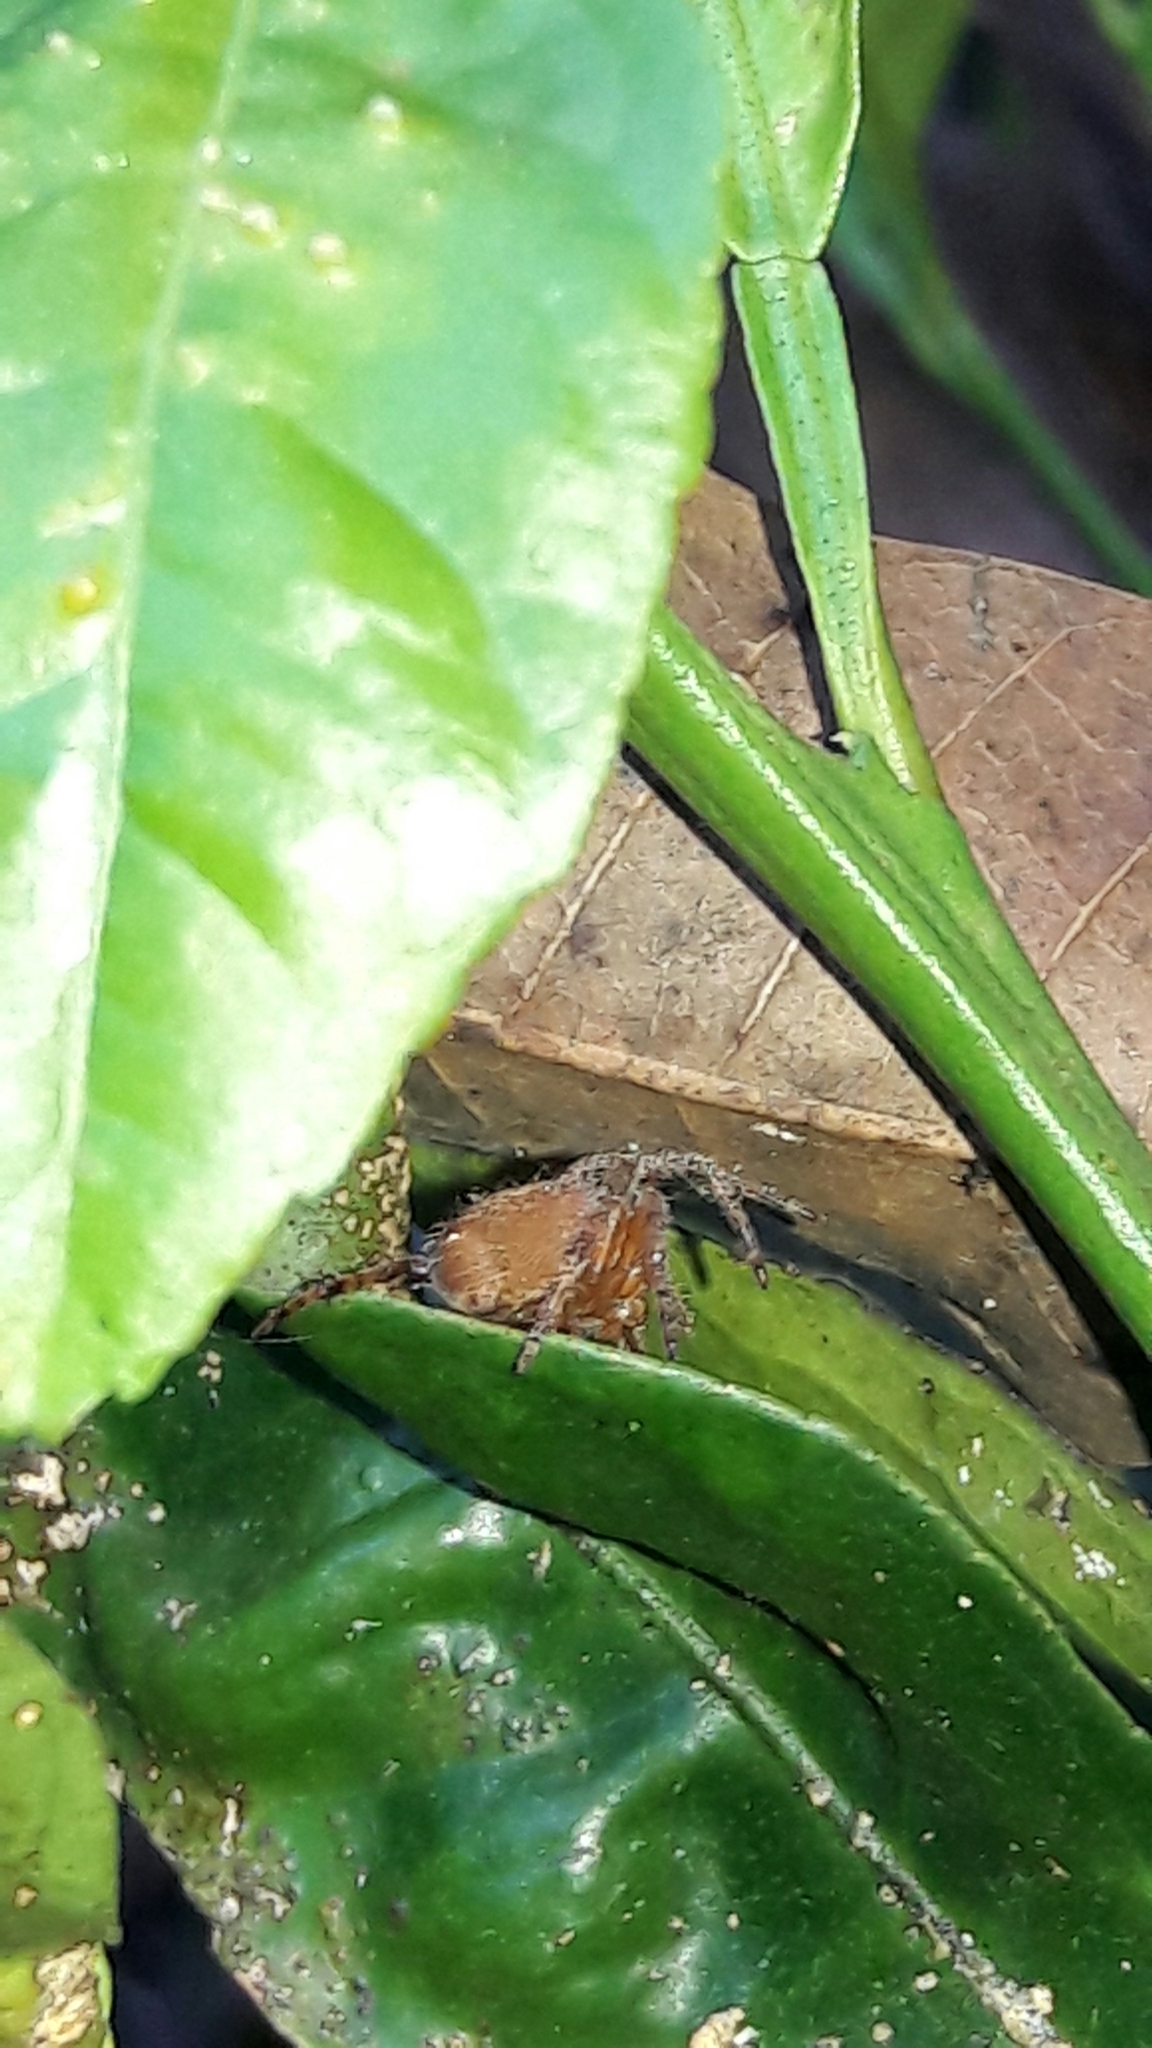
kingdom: Animalia
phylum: Arthropoda
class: Arachnida
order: Araneae
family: Araneidae
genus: Eriophora
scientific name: Eriophora edax
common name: Orb weavers
